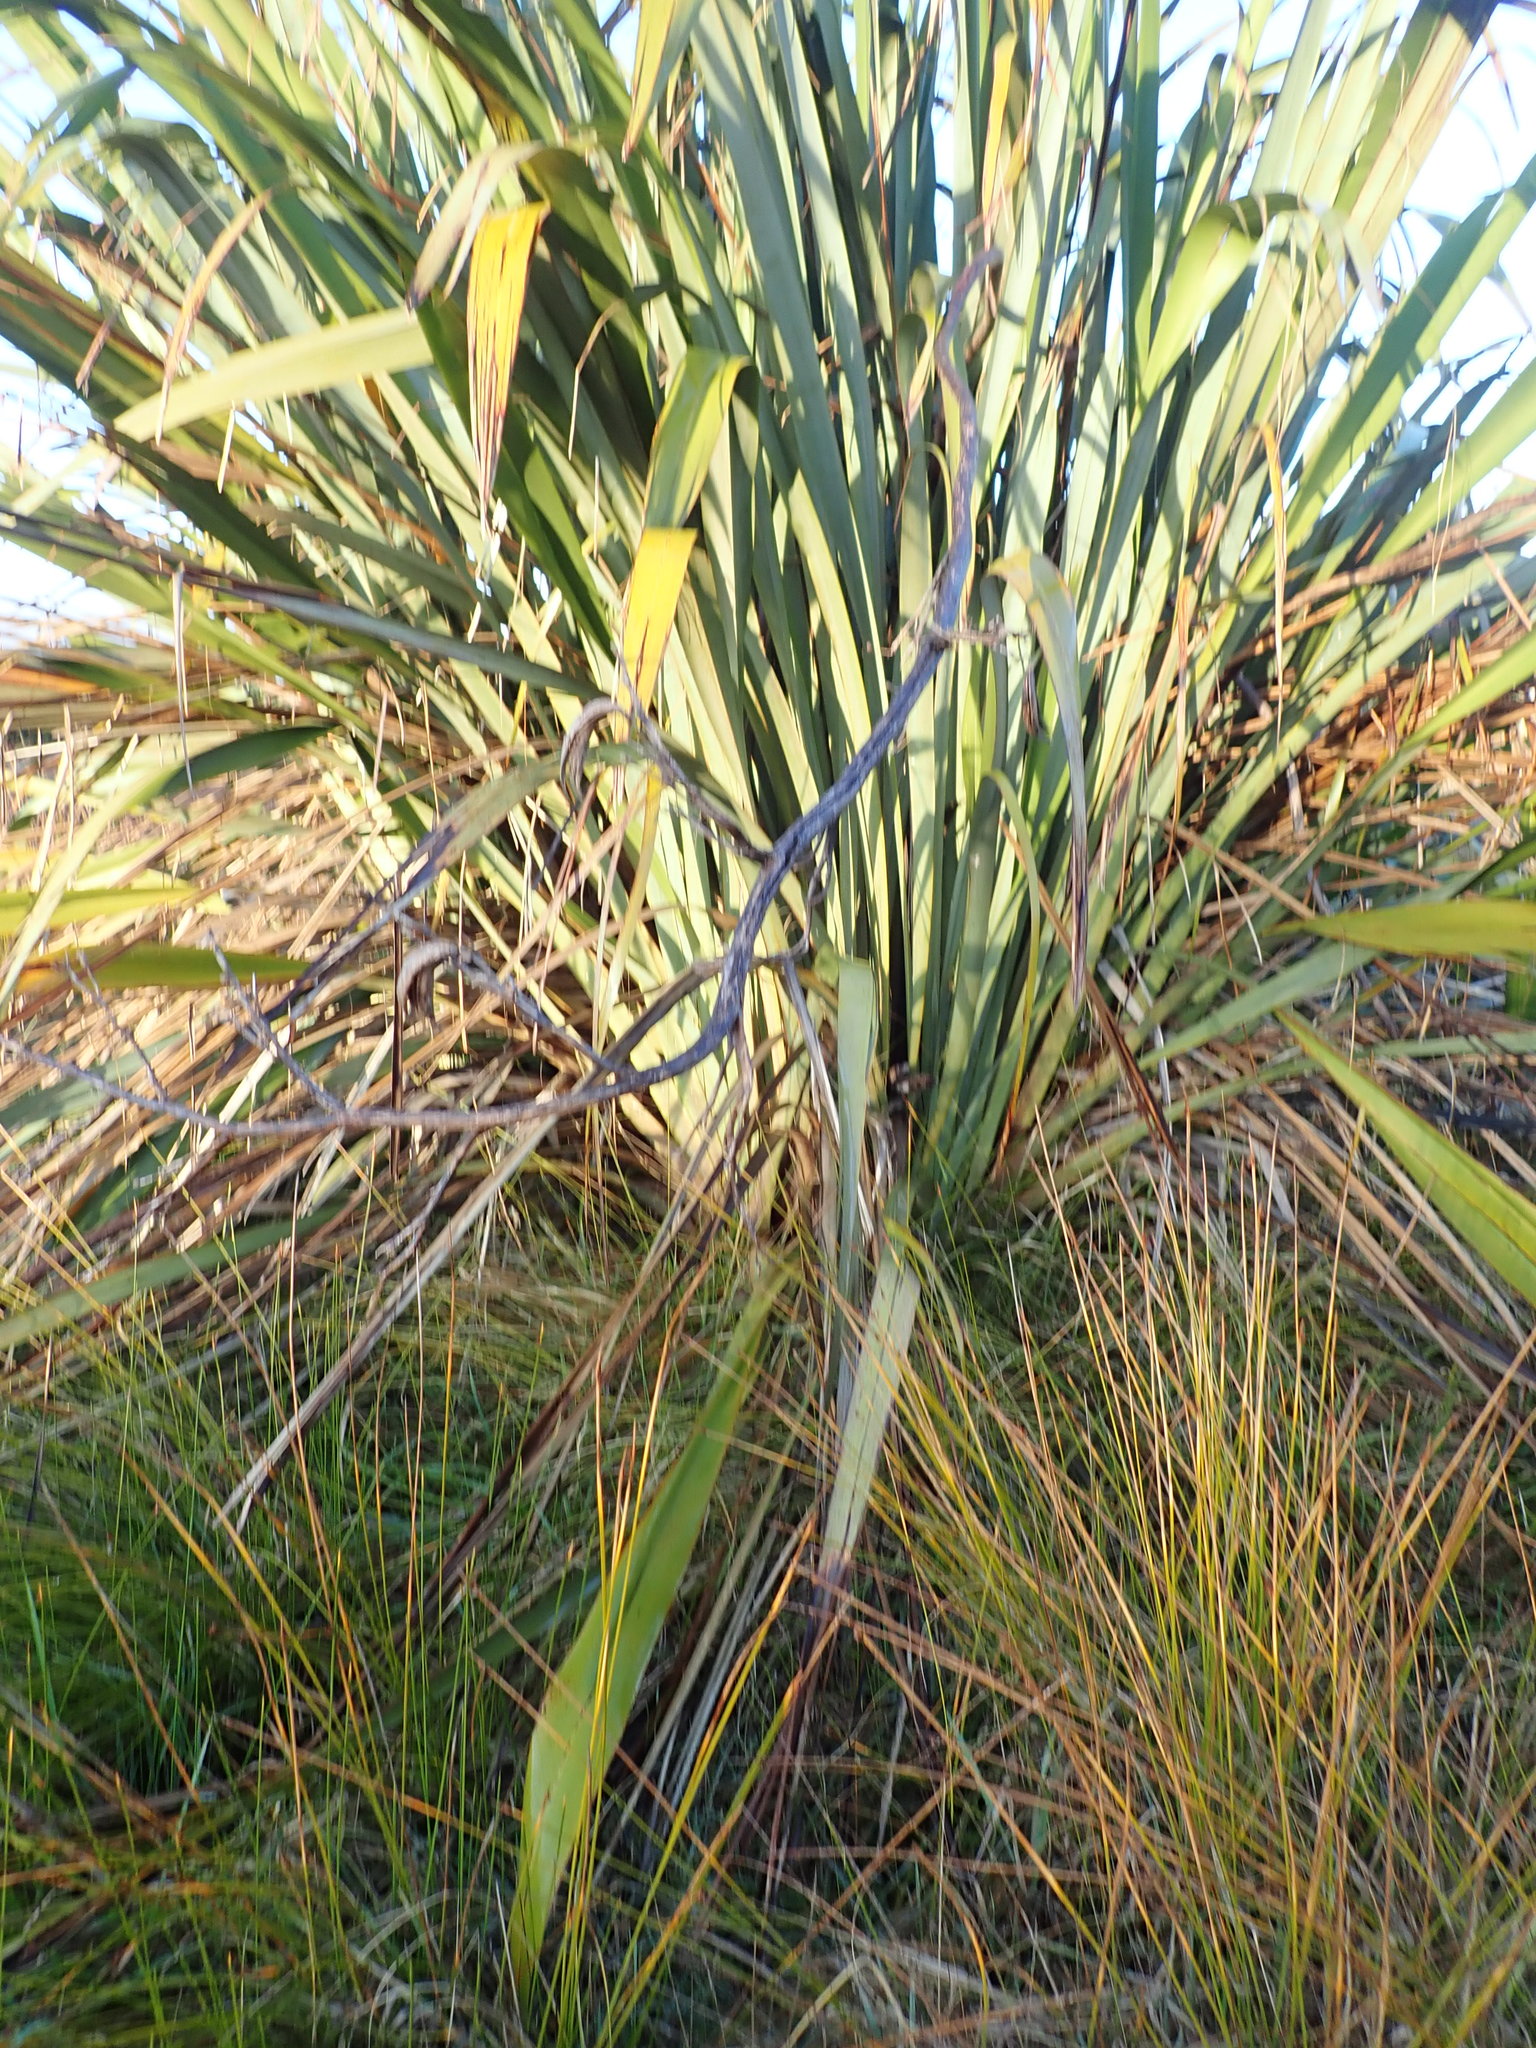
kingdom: Plantae
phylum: Tracheophyta
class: Liliopsida
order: Asparagales
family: Asphodelaceae
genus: Phormium
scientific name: Phormium tenax
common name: New zealand flax
